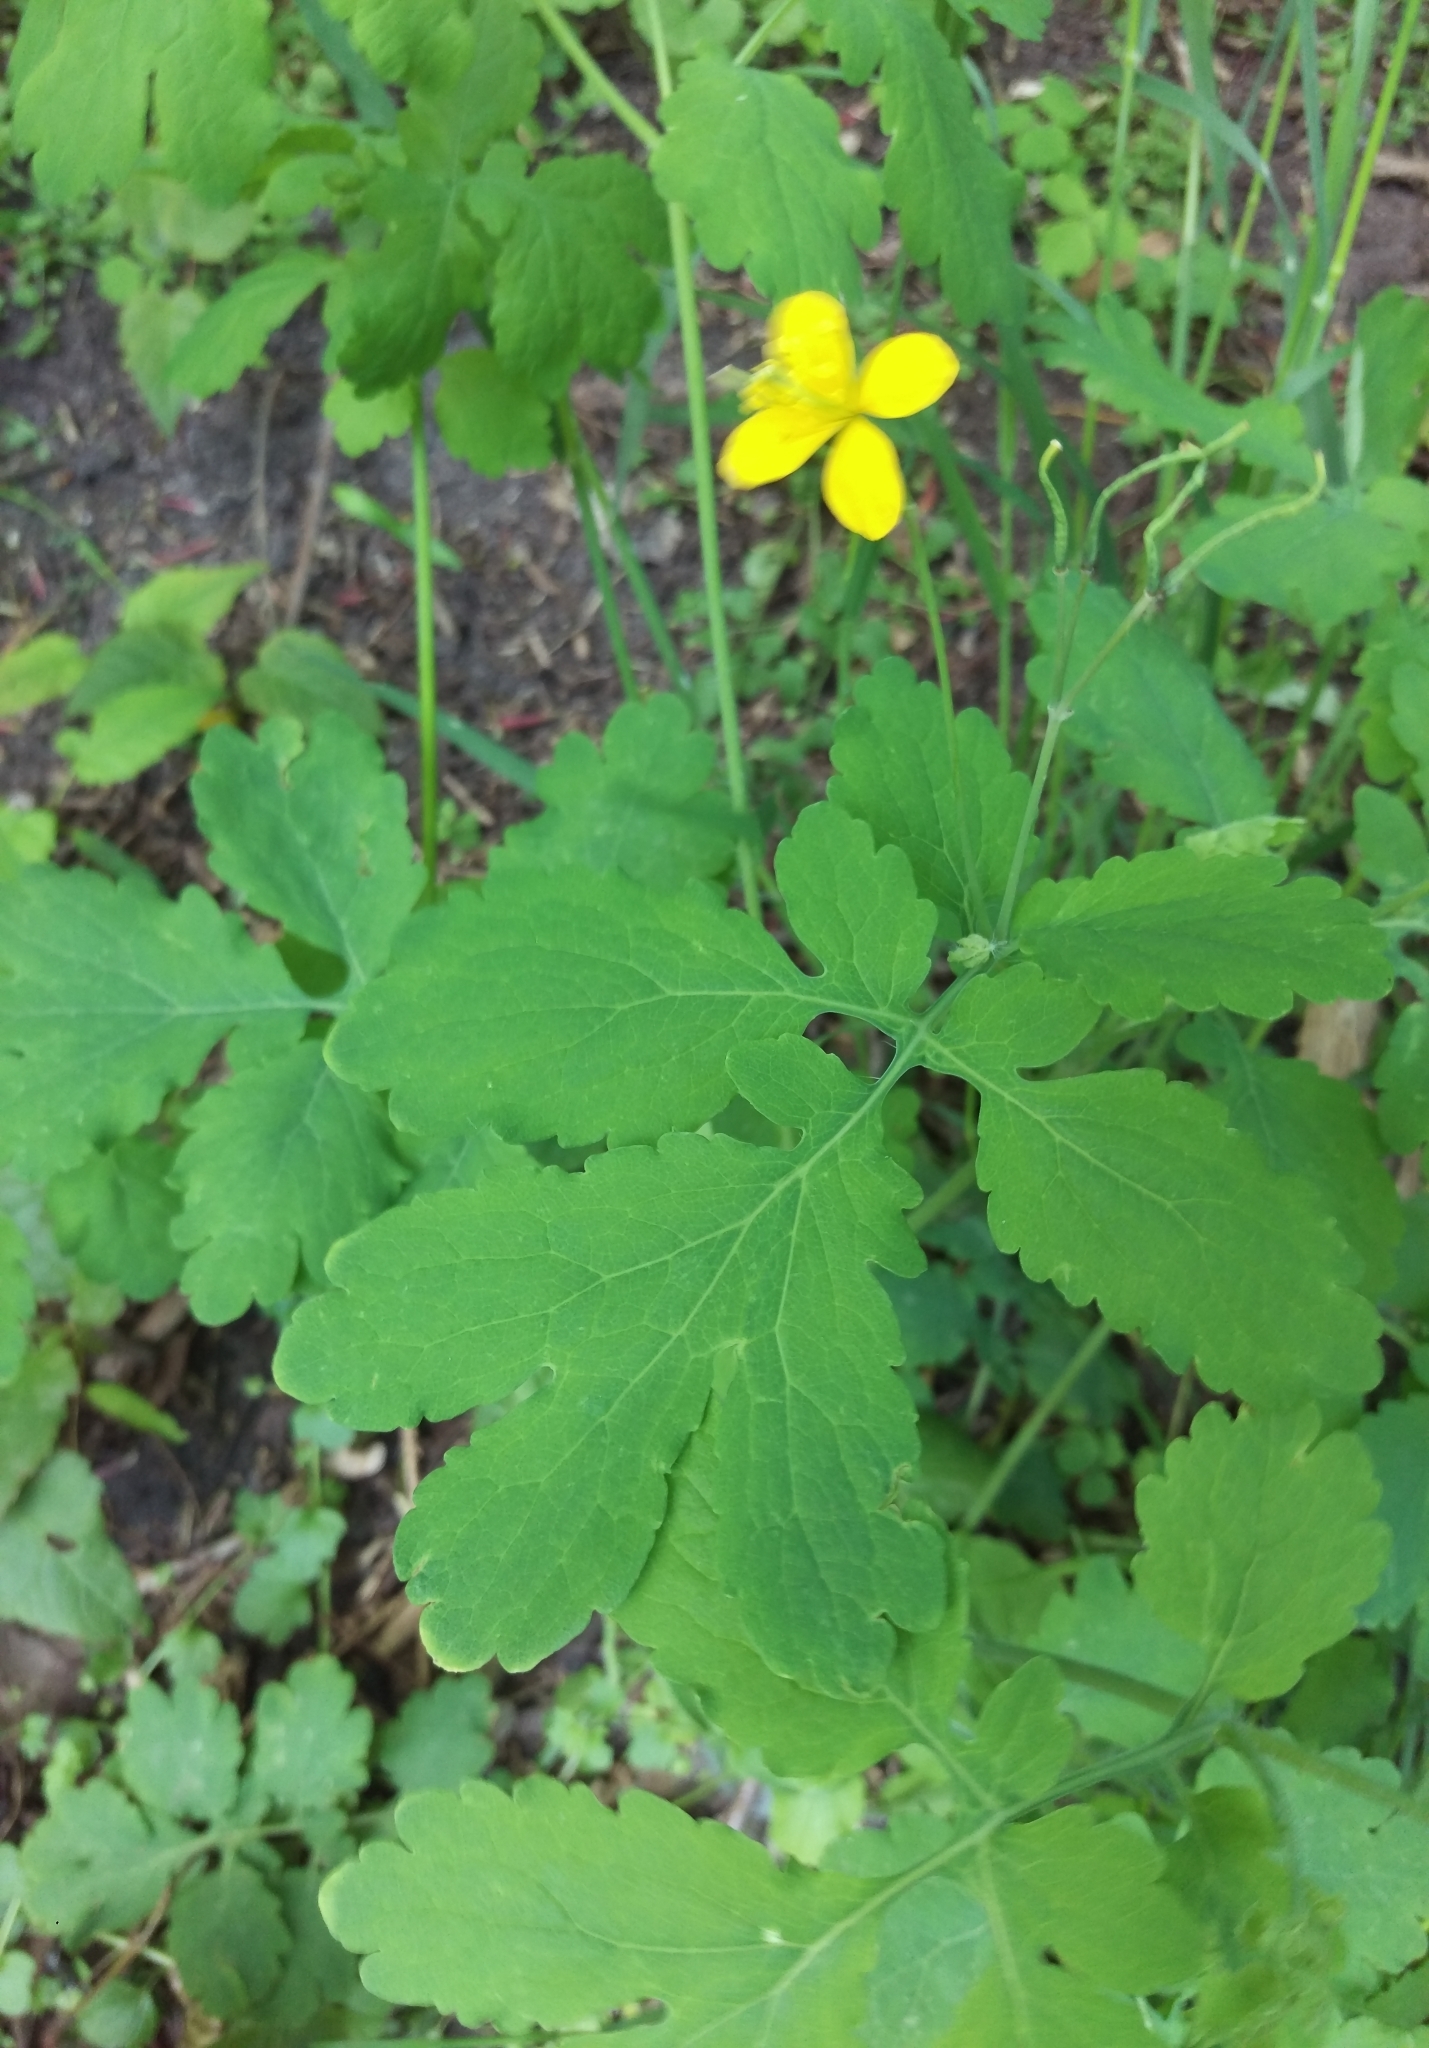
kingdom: Plantae
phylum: Tracheophyta
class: Magnoliopsida
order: Ranunculales
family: Papaveraceae
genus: Chelidonium
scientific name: Chelidonium majus
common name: Greater celandine
